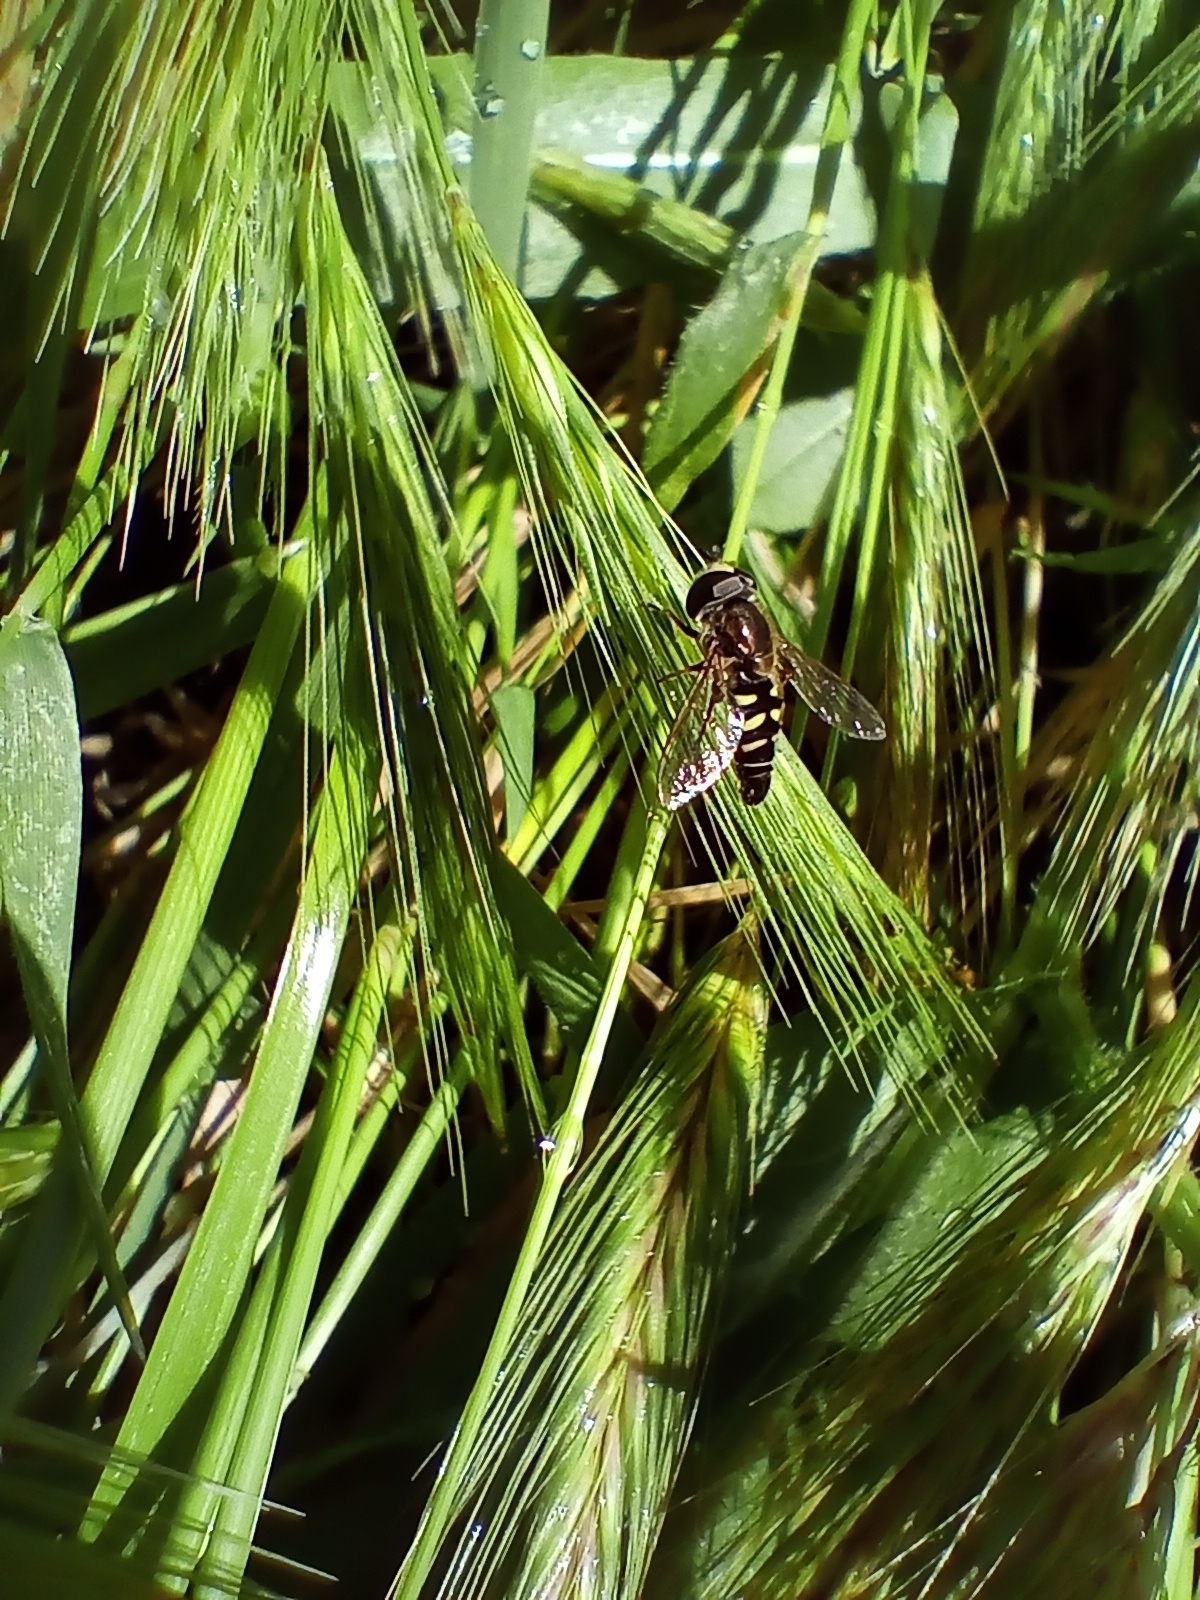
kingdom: Animalia
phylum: Arthropoda
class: Insecta
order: Diptera
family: Syrphidae
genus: Eupeodes
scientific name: Eupeodes volucris
